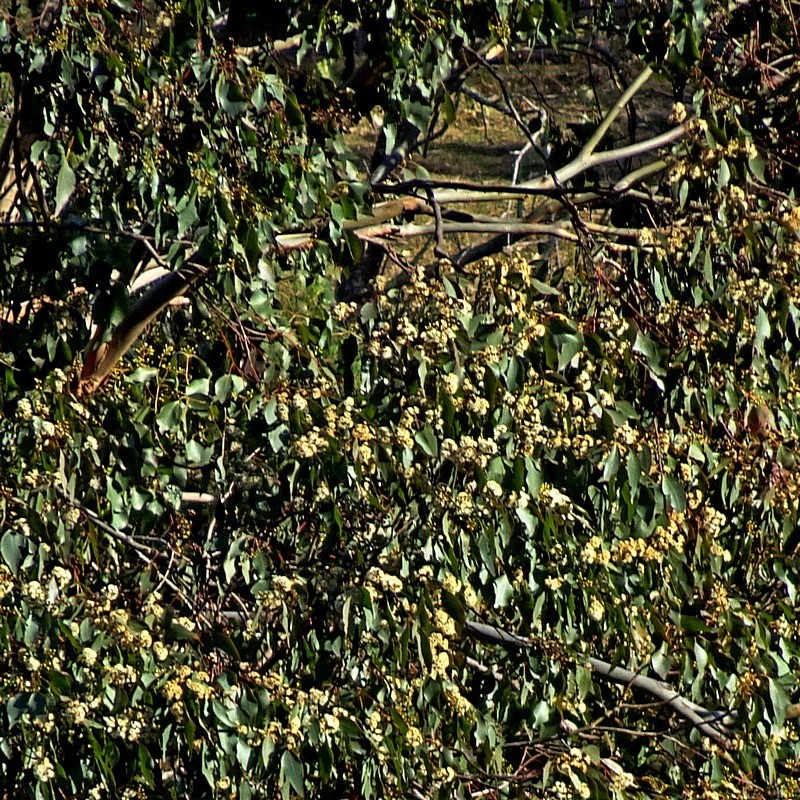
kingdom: Plantae
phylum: Tracheophyta
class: Magnoliopsida
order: Myrtales
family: Myrtaceae
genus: Eucalyptus
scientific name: Eucalyptus baueriana
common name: Round-leaf-box
